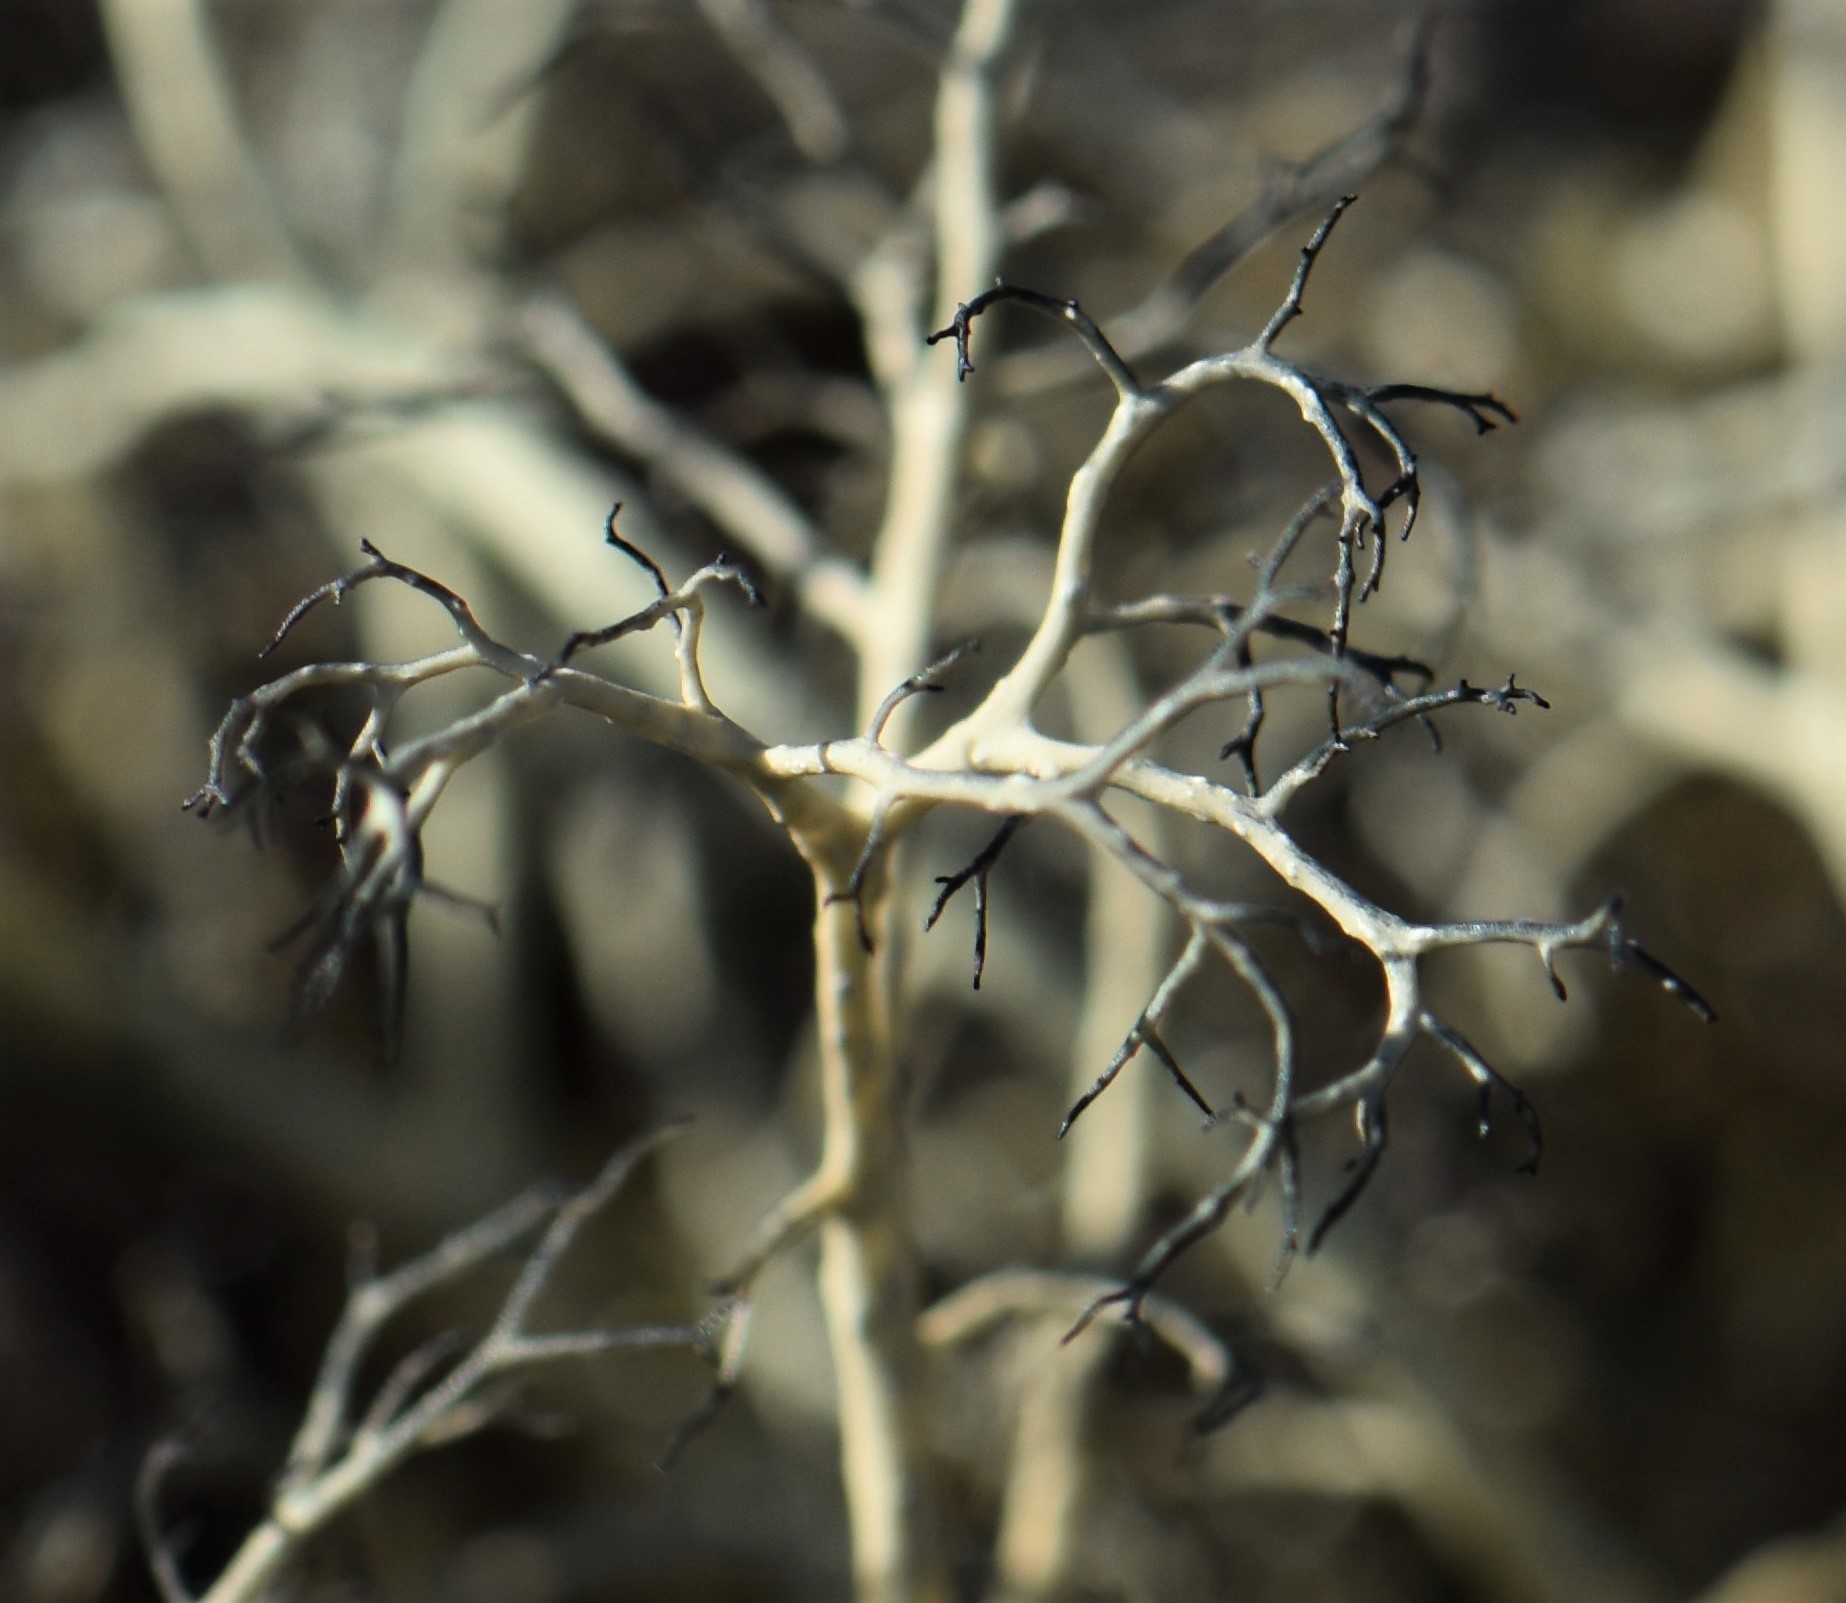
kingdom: Fungi
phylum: Ascomycota
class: Lecanoromycetes
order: Lecanorales
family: Parmeliaceae
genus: Alectoria
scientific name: Alectoria ochroleuca
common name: Alpine sulphur-tresses
